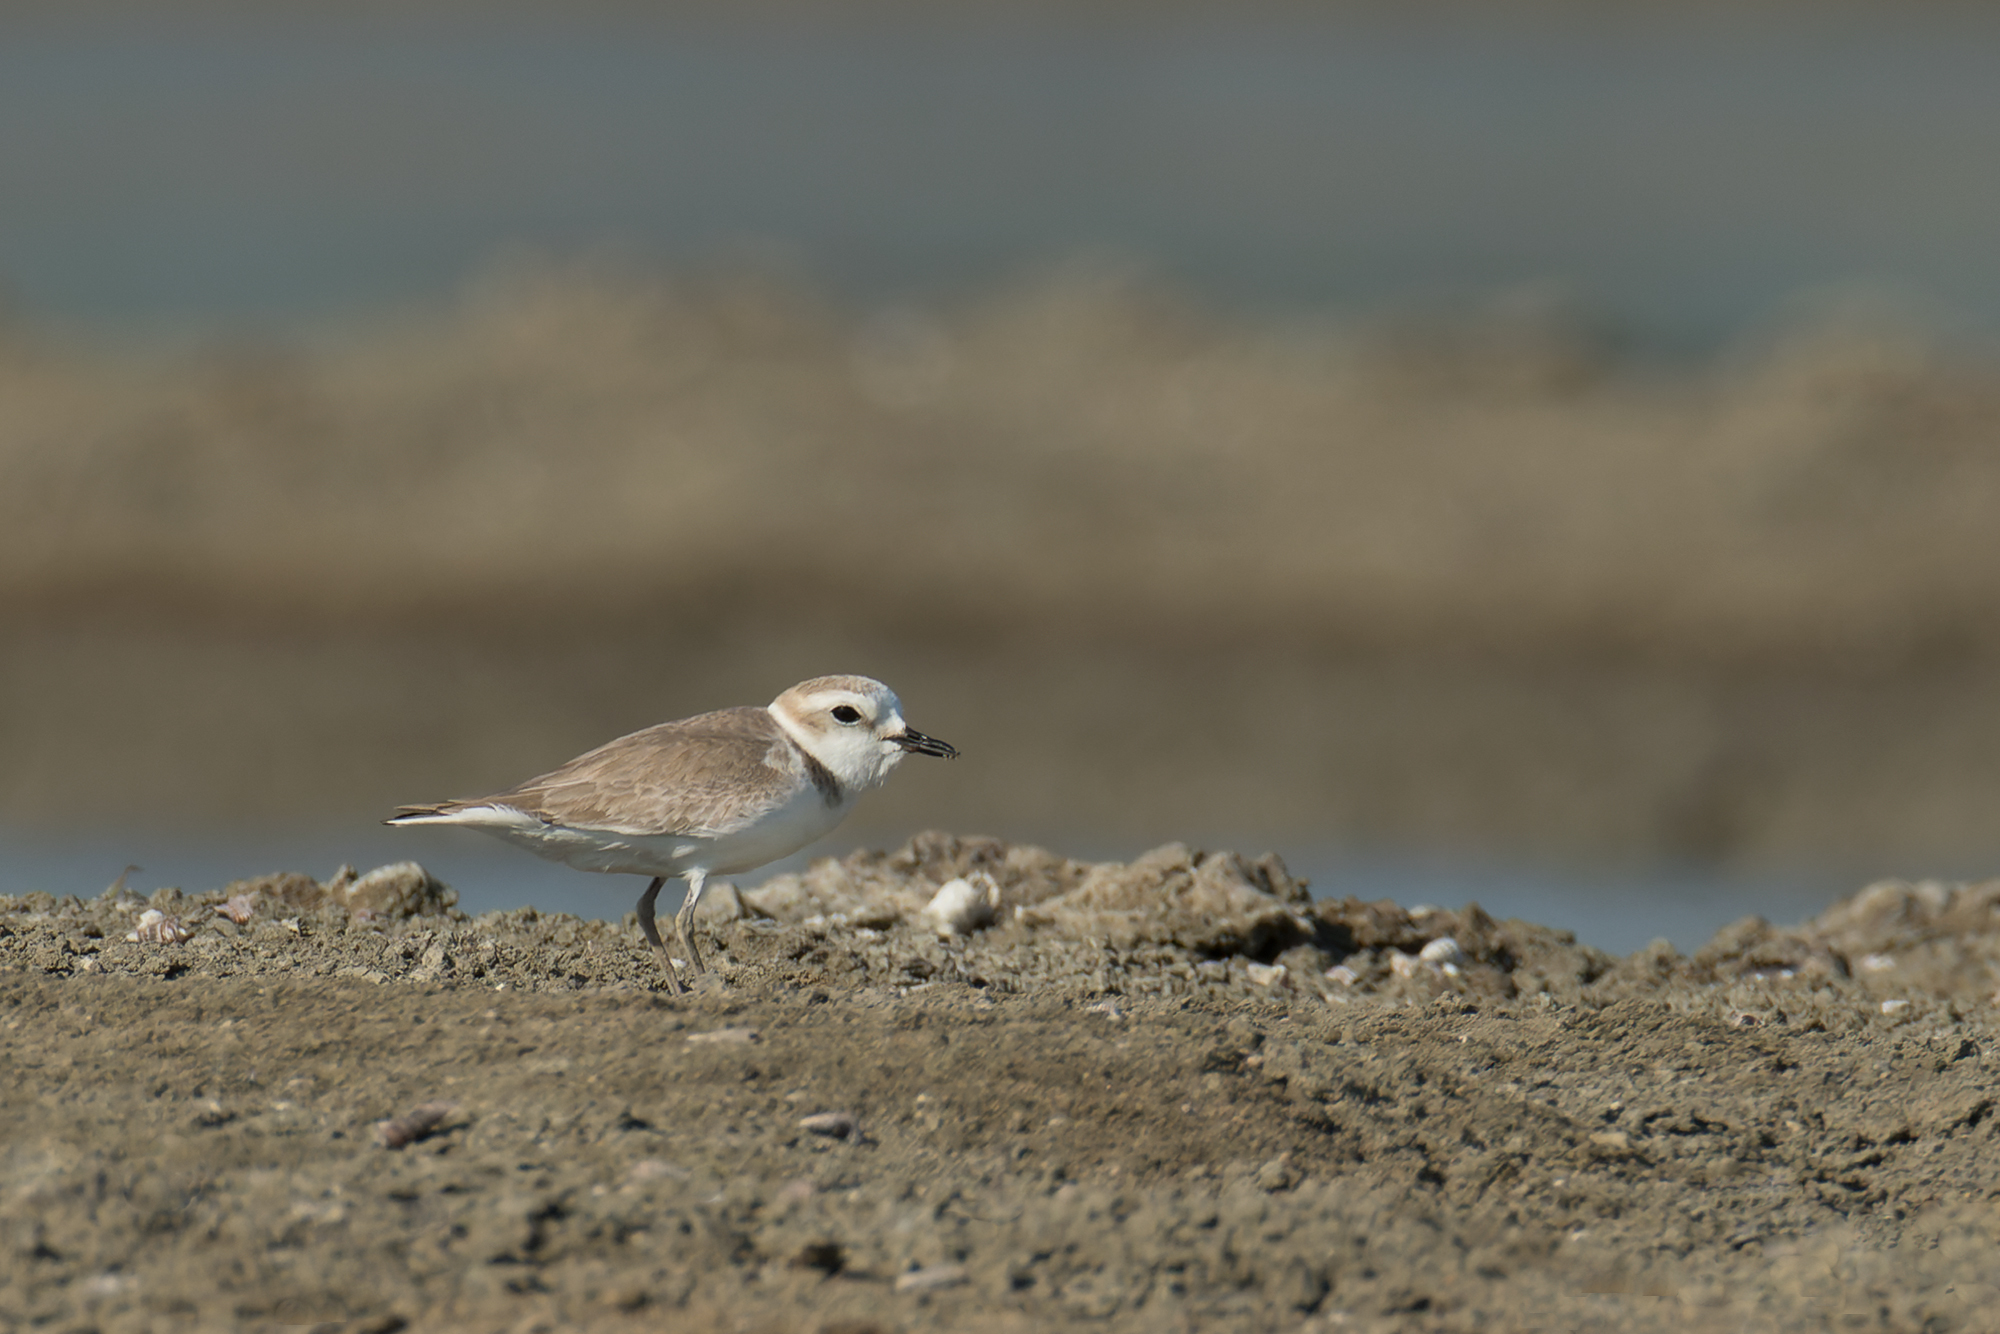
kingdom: Animalia
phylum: Chordata
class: Aves
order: Charadriiformes
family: Charadriidae
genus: Anarhynchus
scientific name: Anarhynchus
